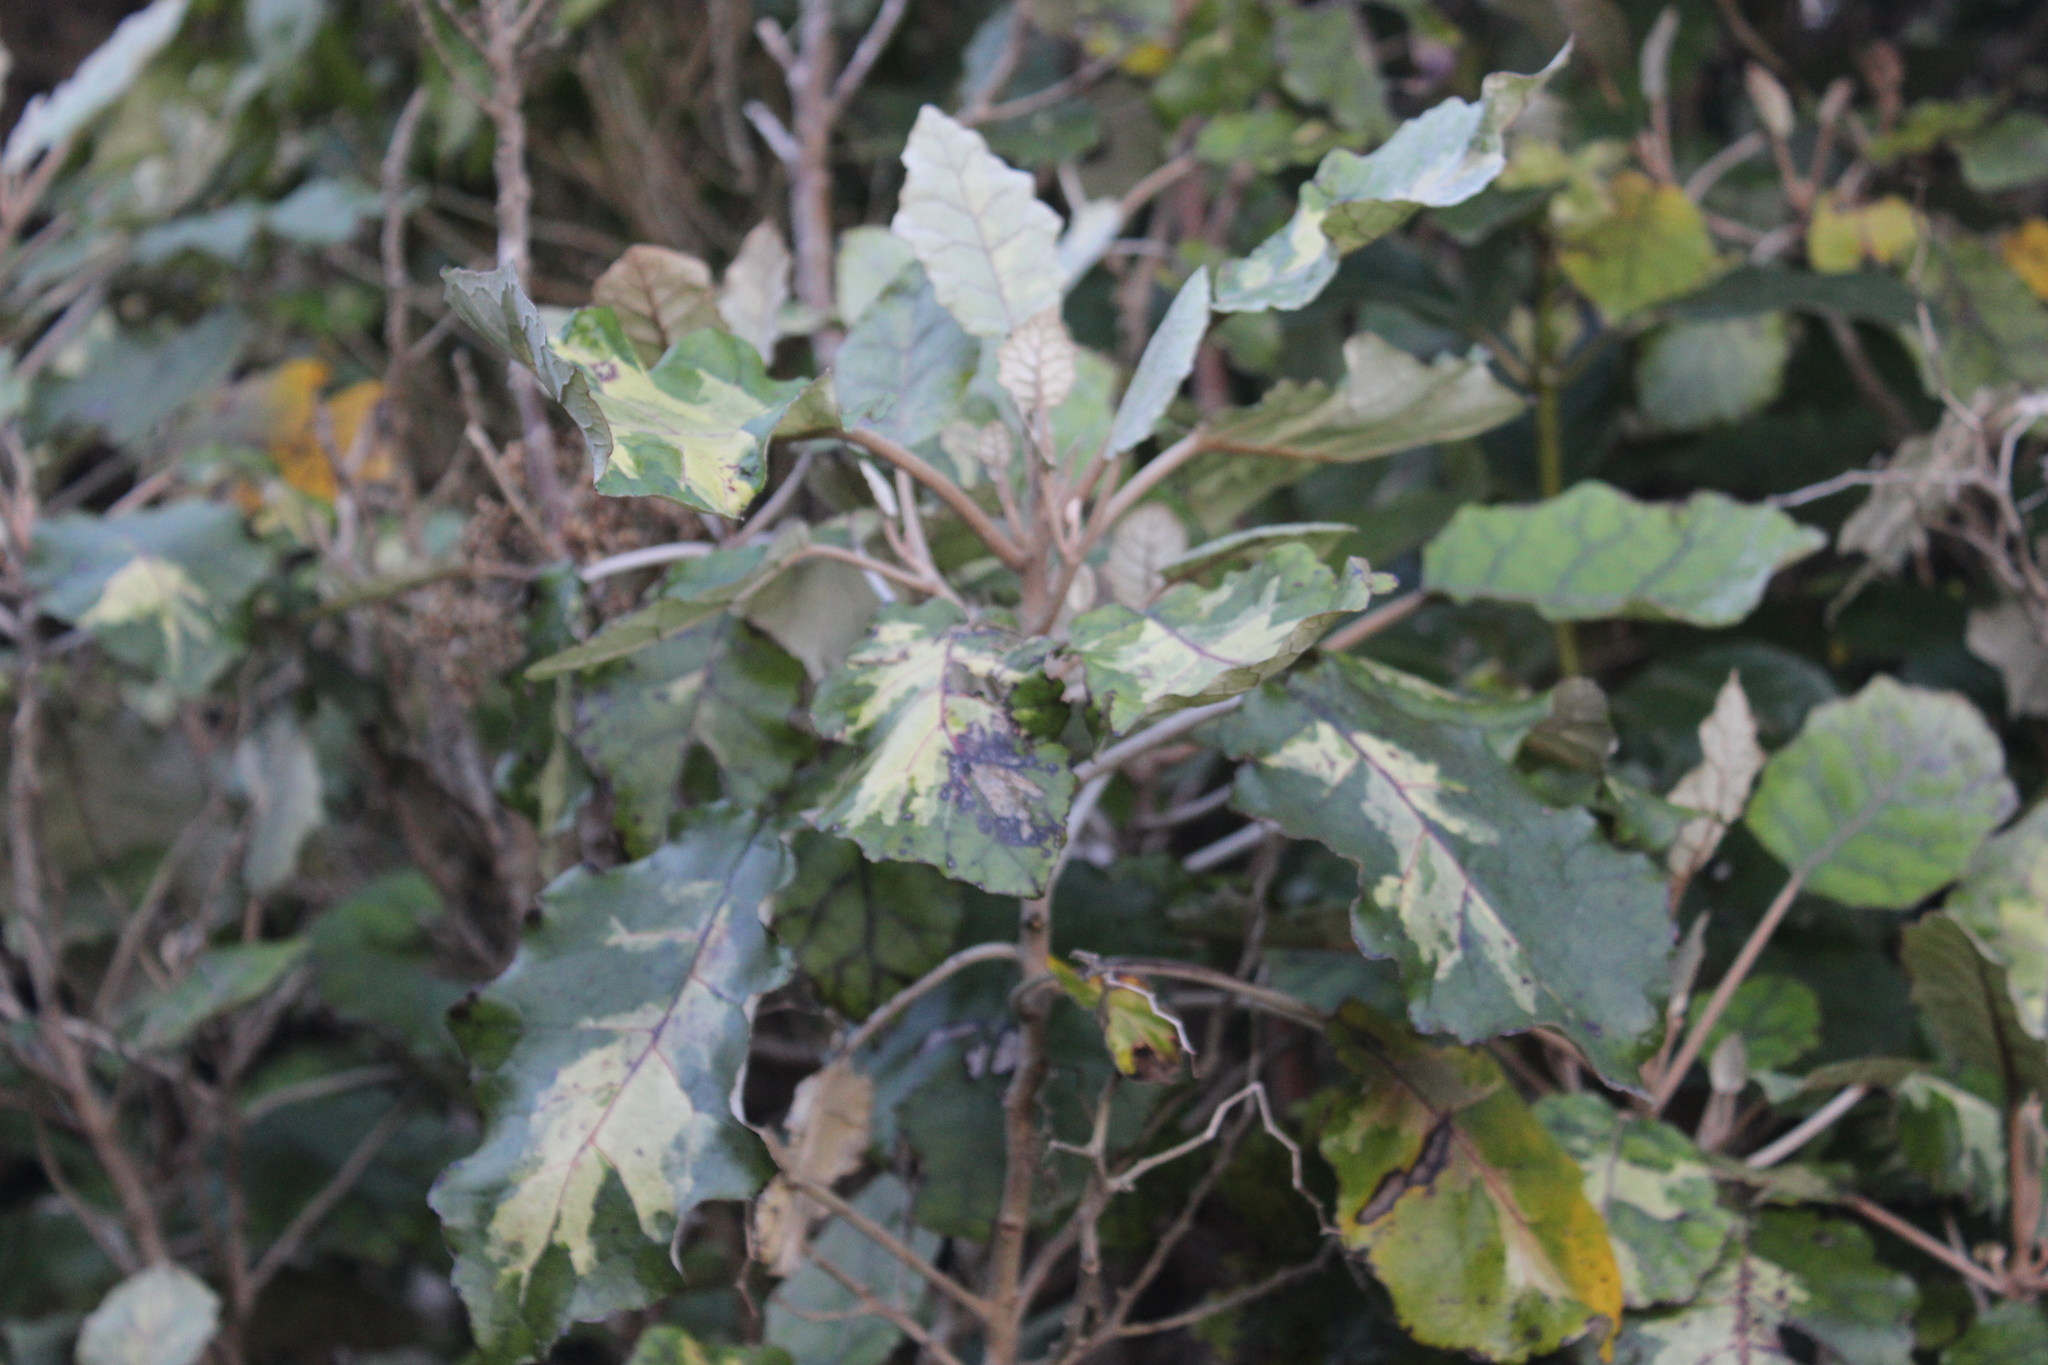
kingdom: Plantae
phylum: Tracheophyta
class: Magnoliopsida
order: Asterales
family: Asteraceae
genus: Brachyglottis
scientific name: Brachyglottis repanda
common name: Hedge ragwort
